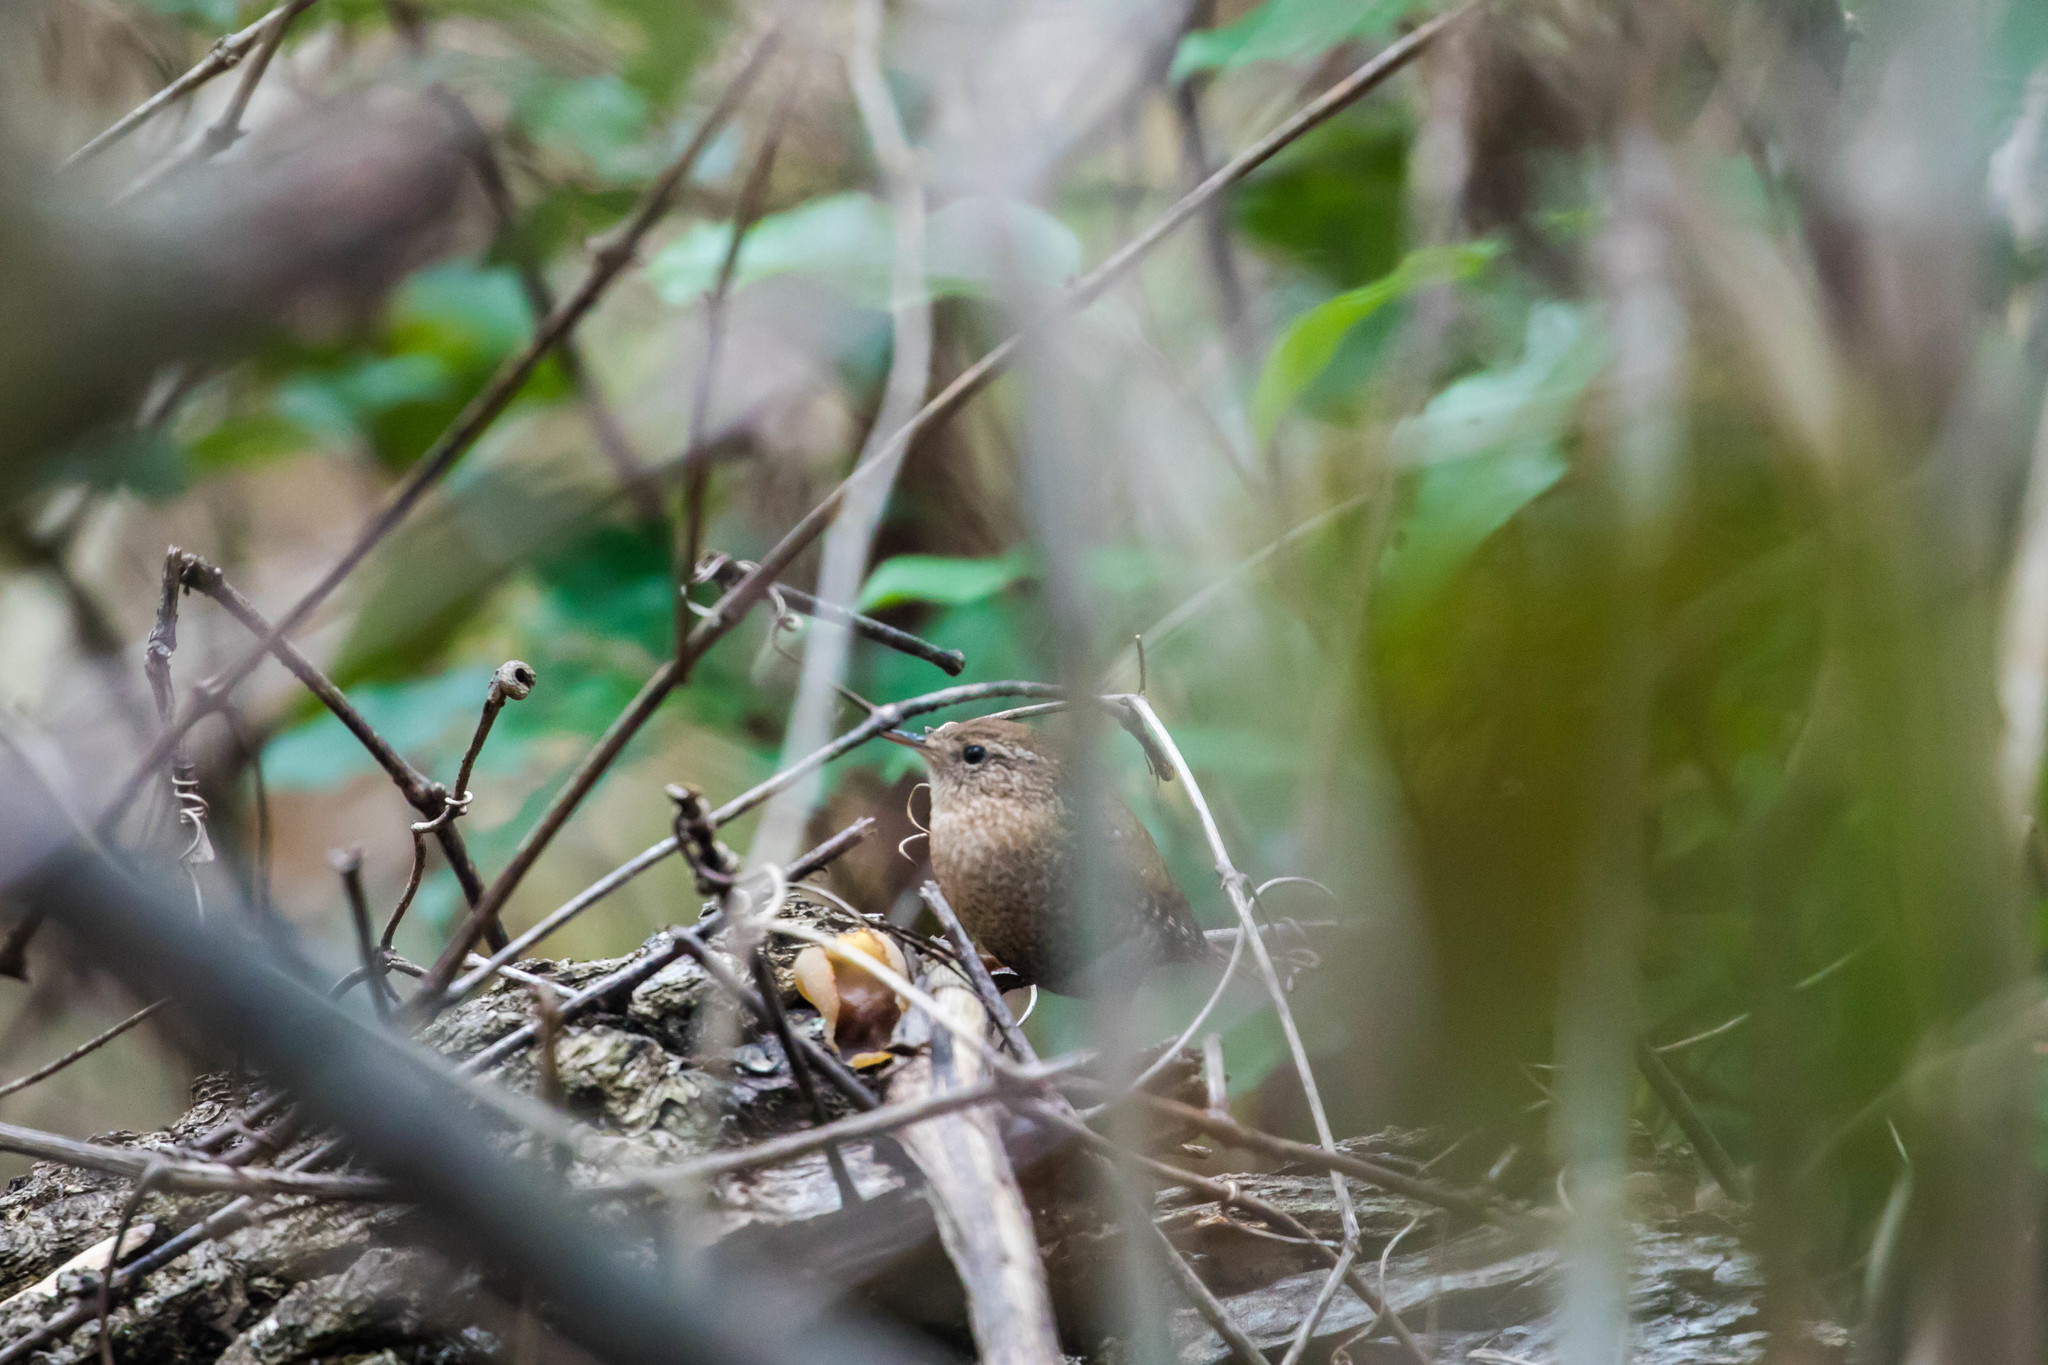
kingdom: Animalia
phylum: Chordata
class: Aves
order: Passeriformes
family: Troglodytidae
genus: Troglodytes
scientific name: Troglodytes hiemalis
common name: Winter wren
